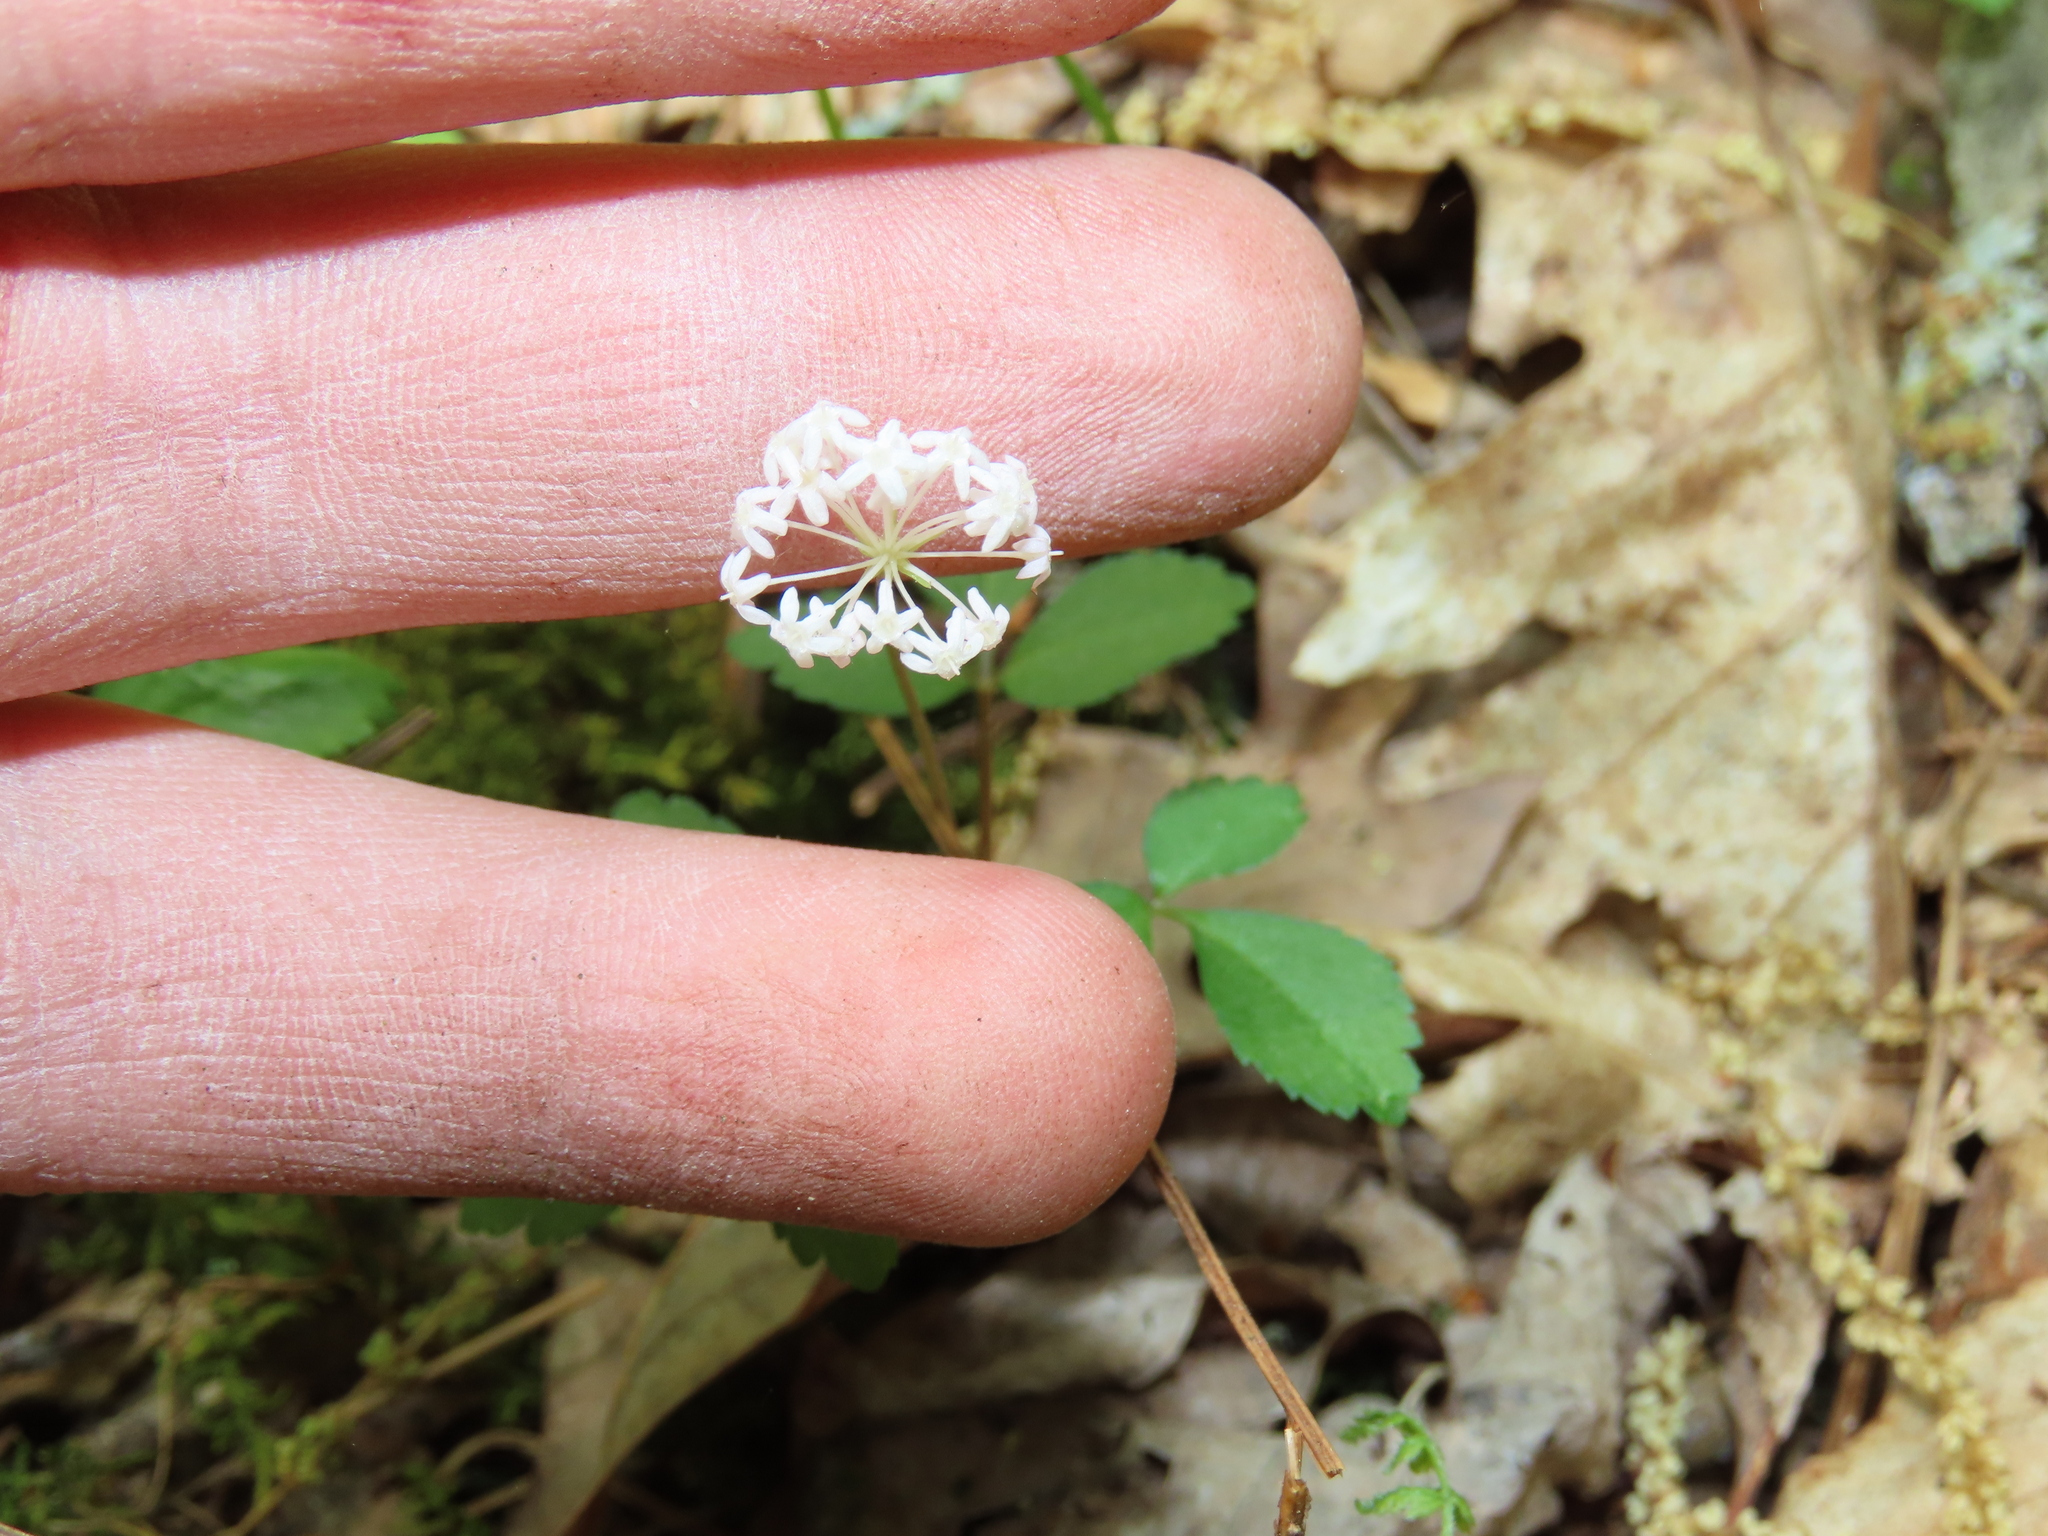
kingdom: Plantae
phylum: Tracheophyta
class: Magnoliopsida
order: Apiales
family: Araliaceae
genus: Panax
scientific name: Panax trifolius
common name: Dwarf ginseng
